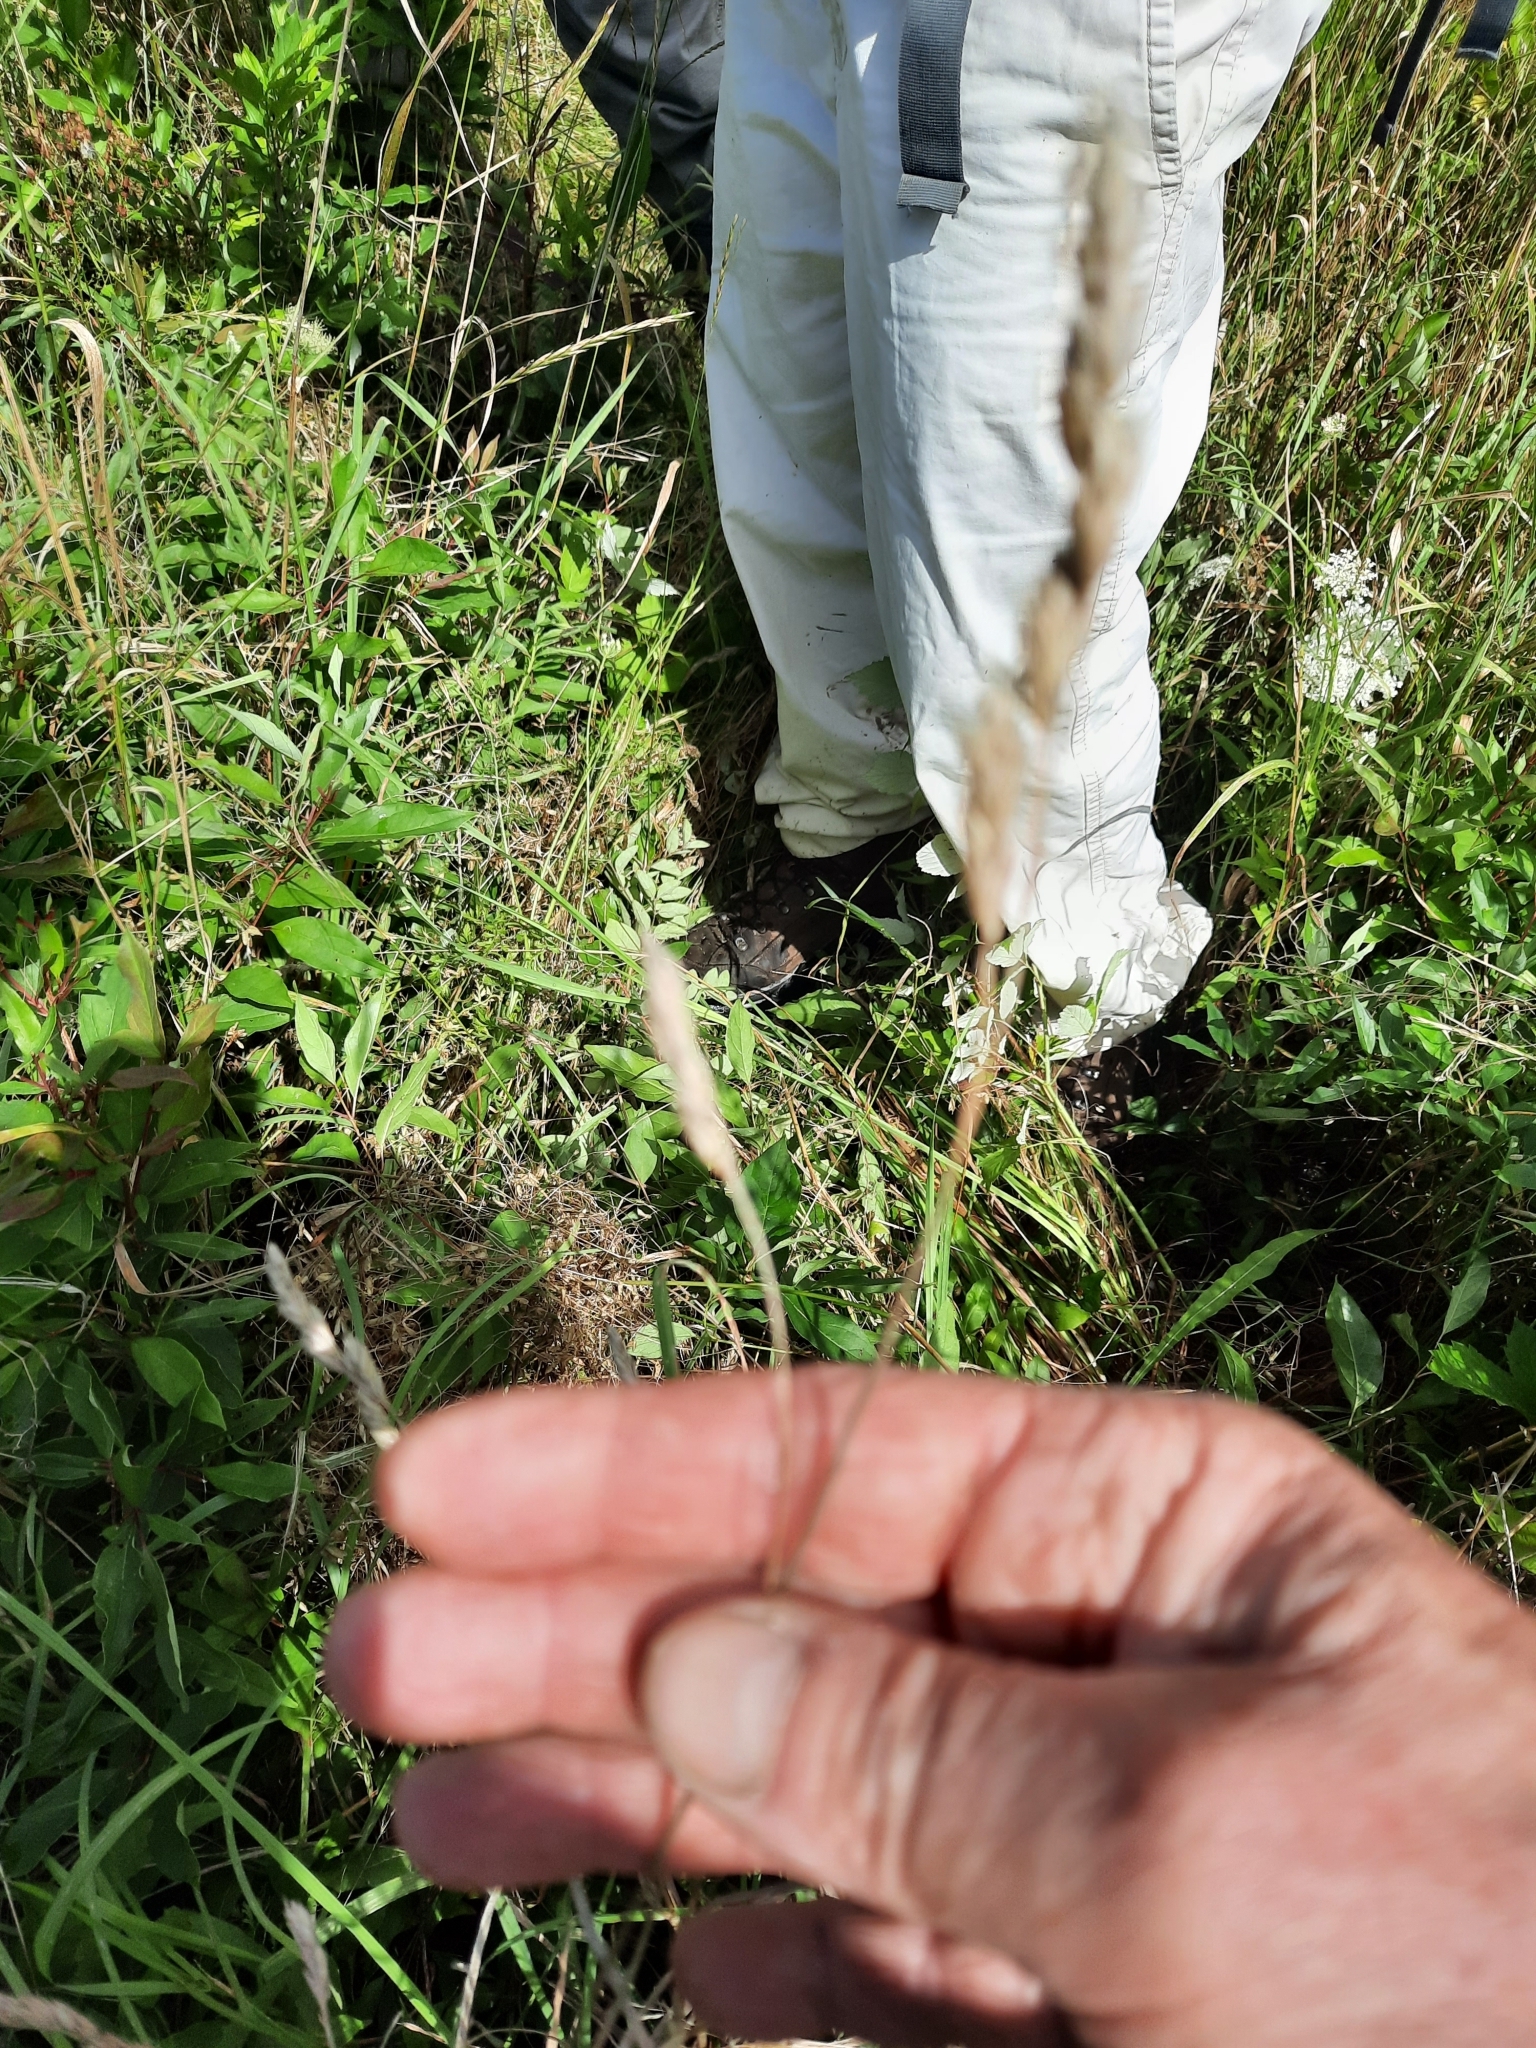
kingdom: Plantae
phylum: Tracheophyta
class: Liliopsida
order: Poales
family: Poaceae
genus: Dactylis
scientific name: Dactylis glomerata
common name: Orchardgrass
